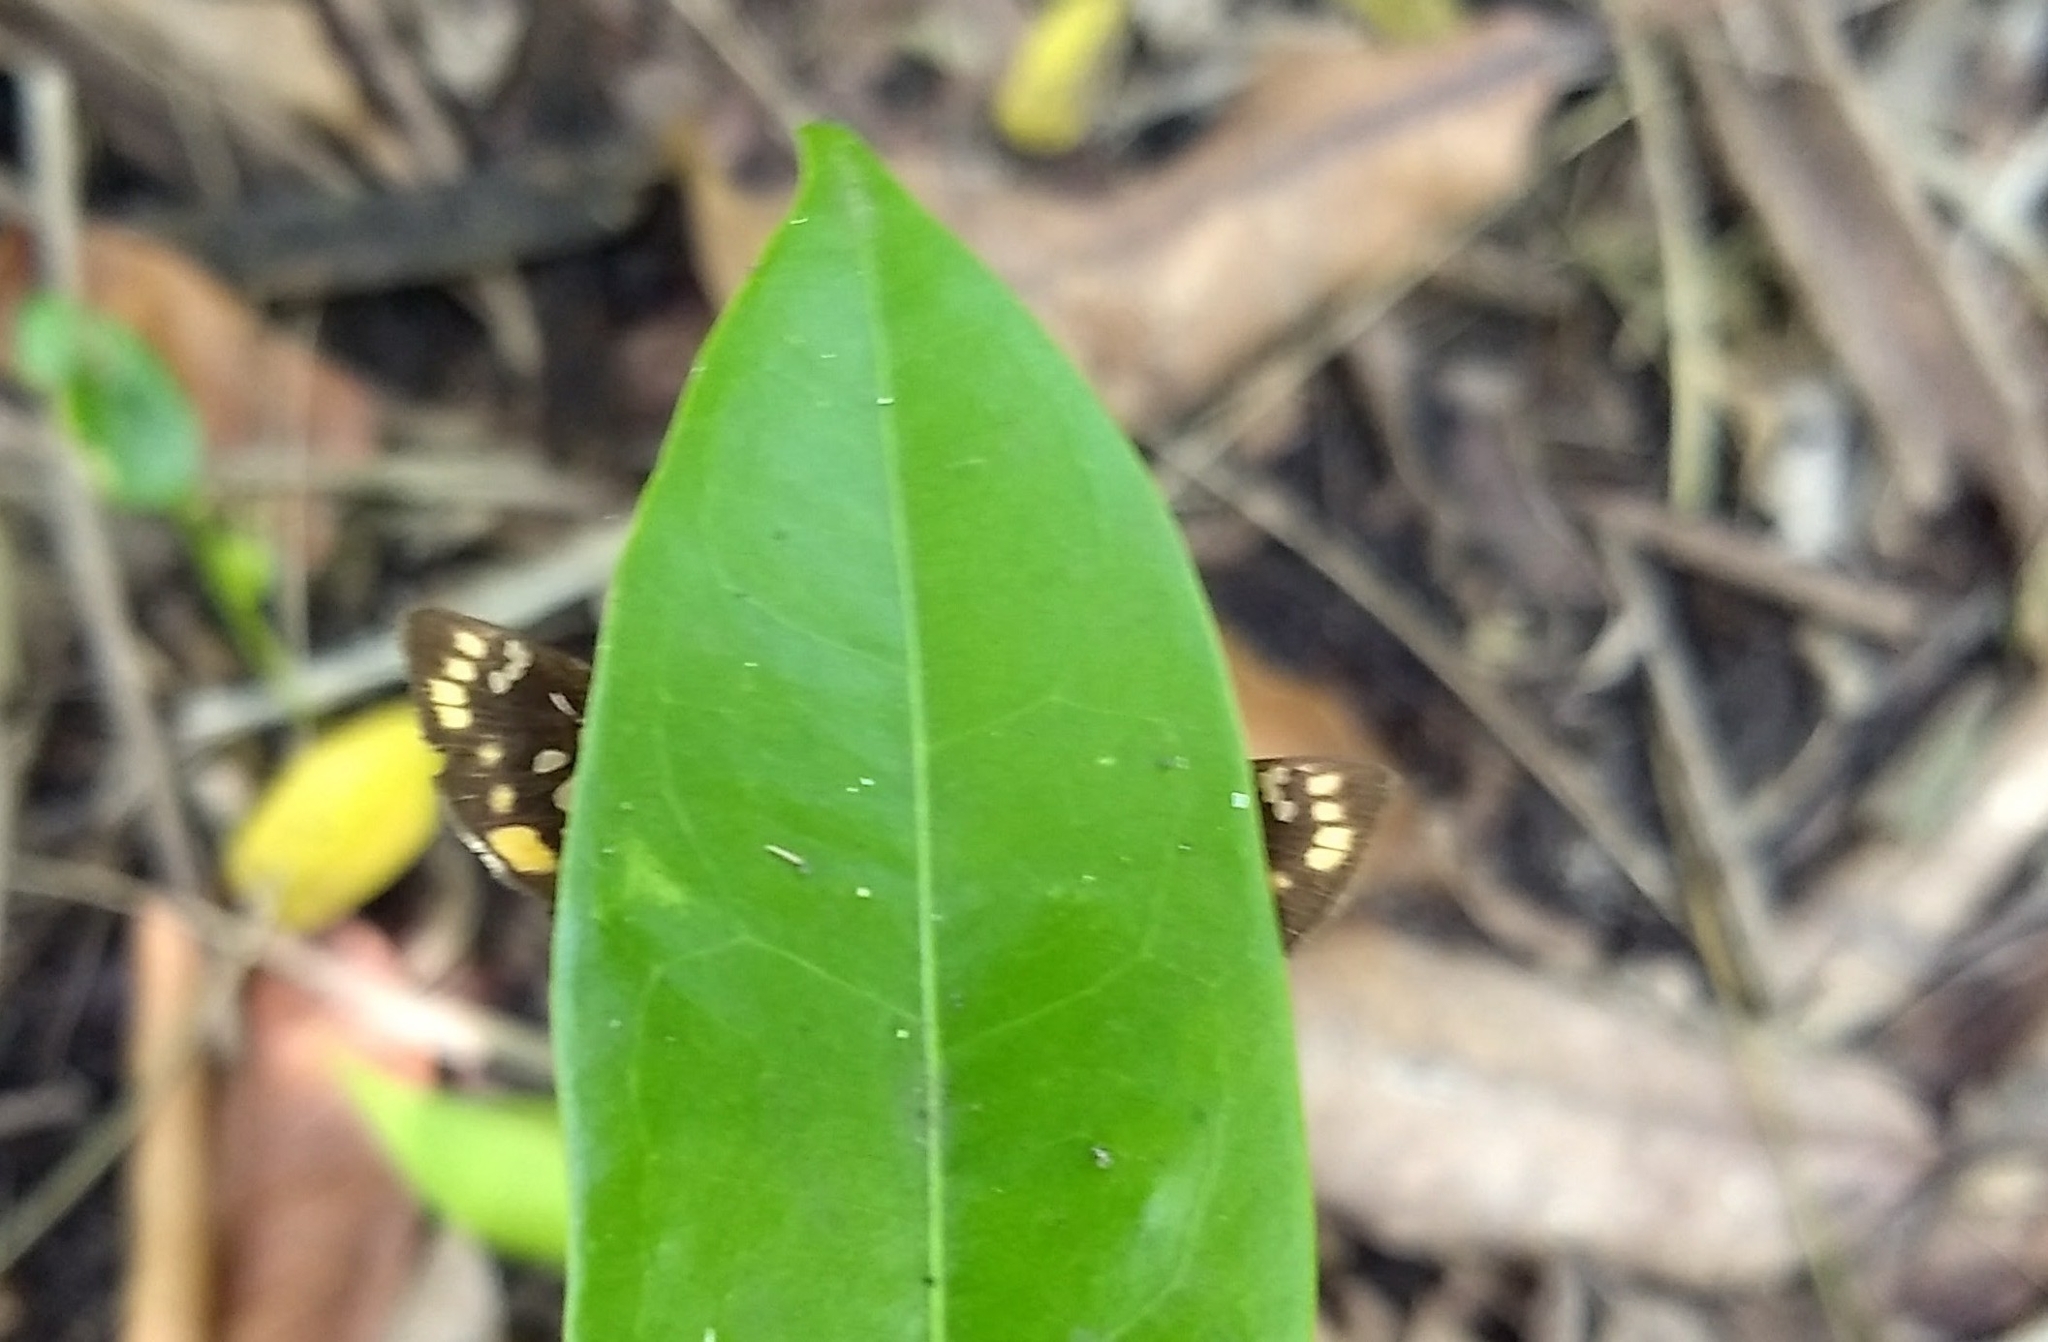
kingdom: Animalia
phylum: Arthropoda
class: Insecta
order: Lepidoptera
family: Hesperiidae
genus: Coladenia
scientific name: Coladenia
